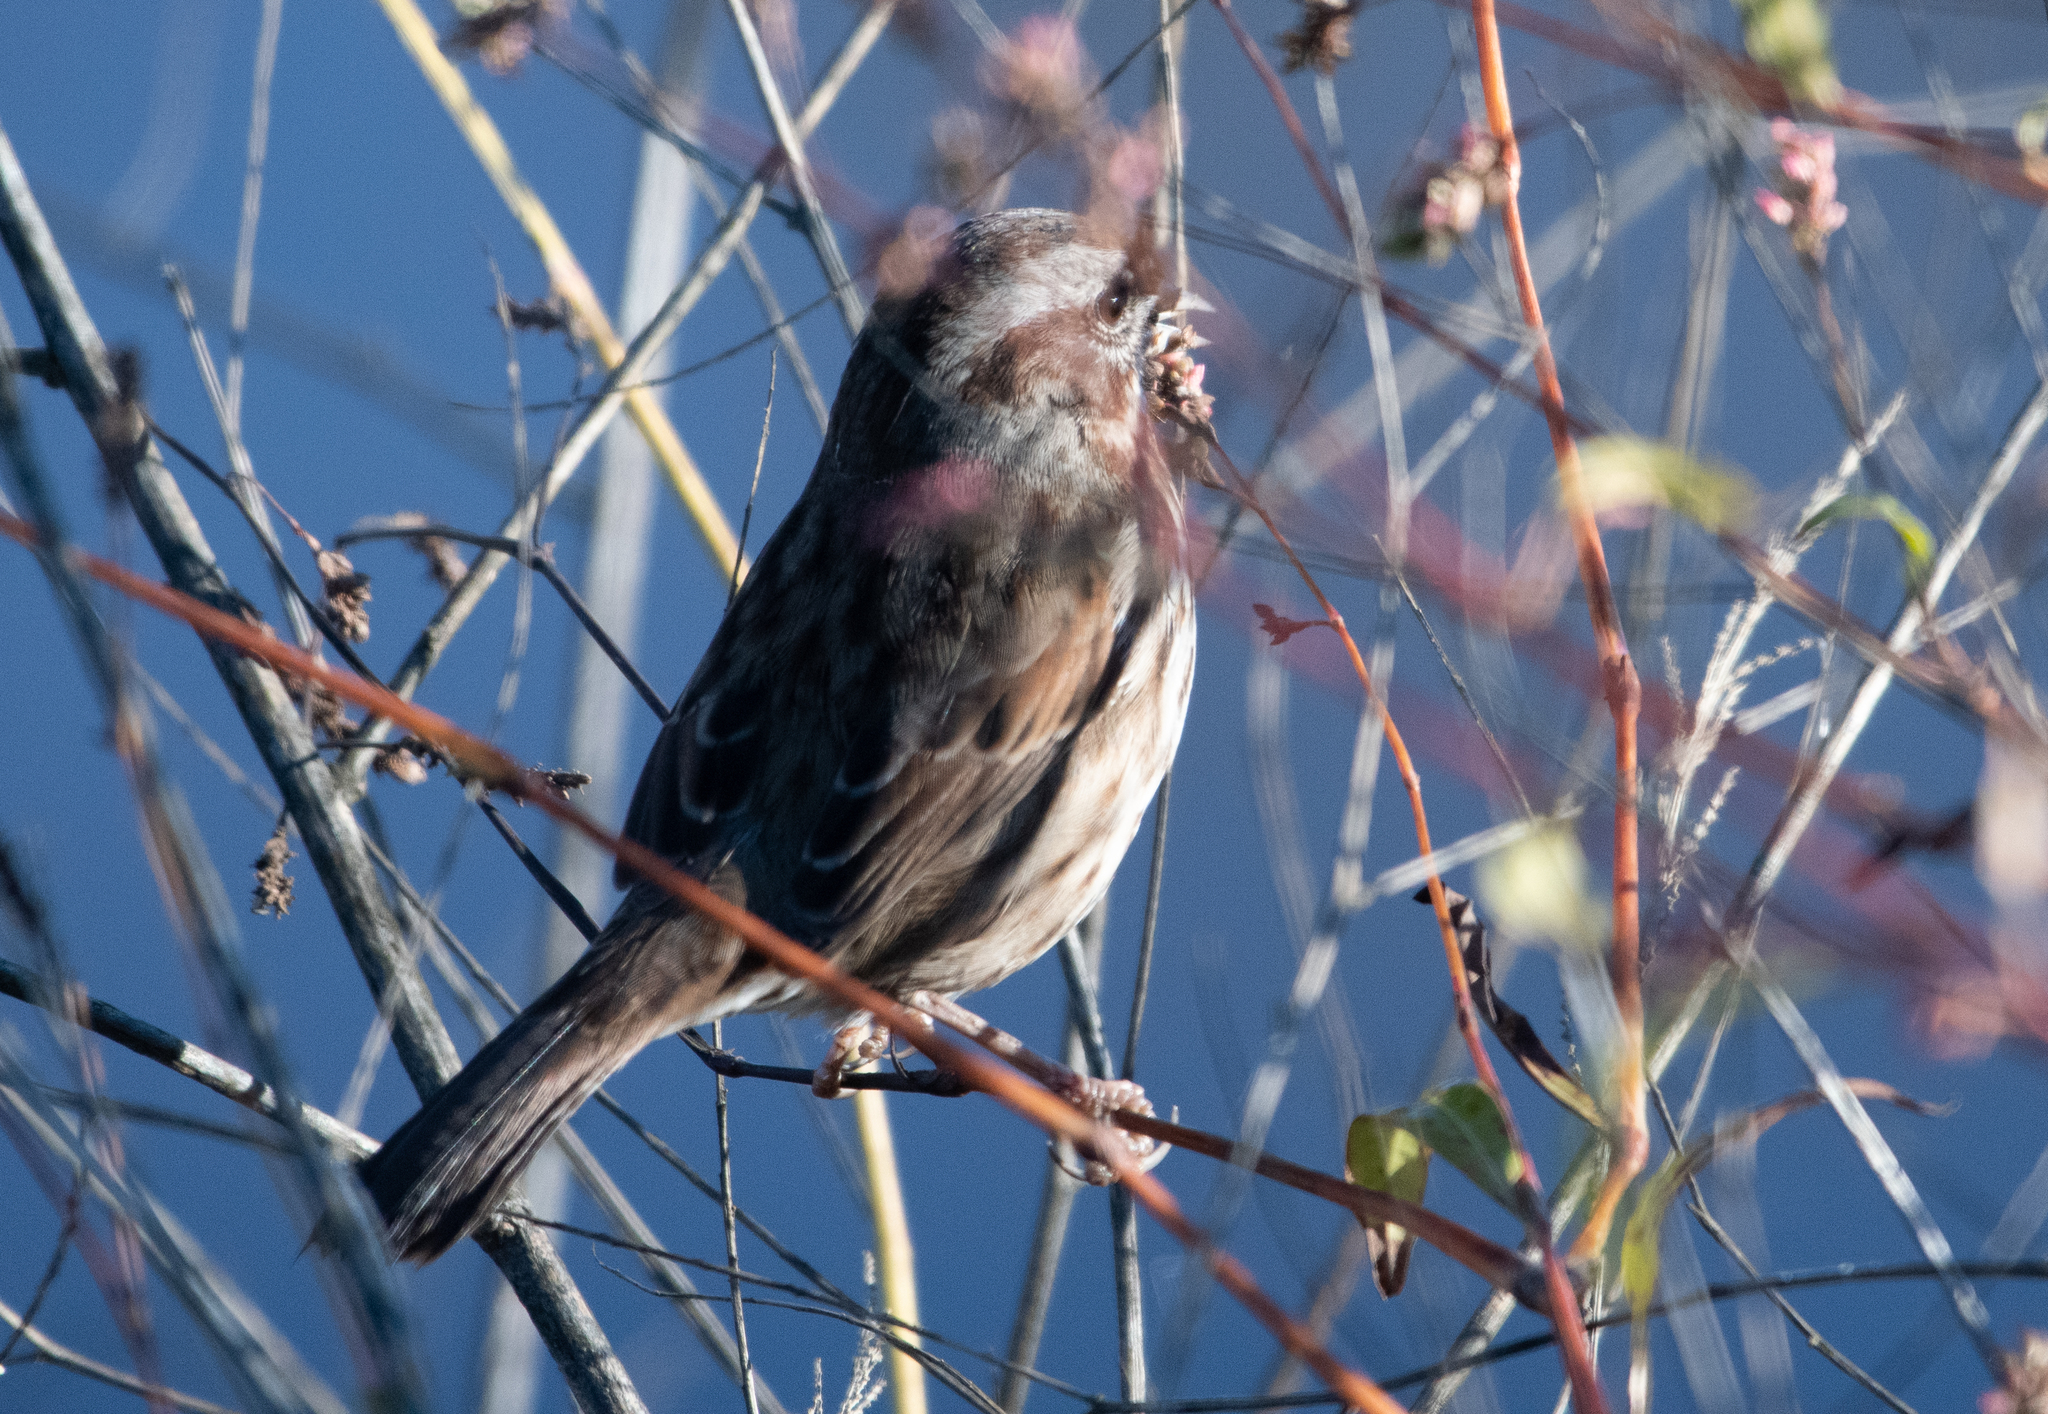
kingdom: Animalia
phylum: Chordata
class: Aves
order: Passeriformes
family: Passerellidae
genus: Melospiza
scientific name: Melospiza melodia
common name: Song sparrow
